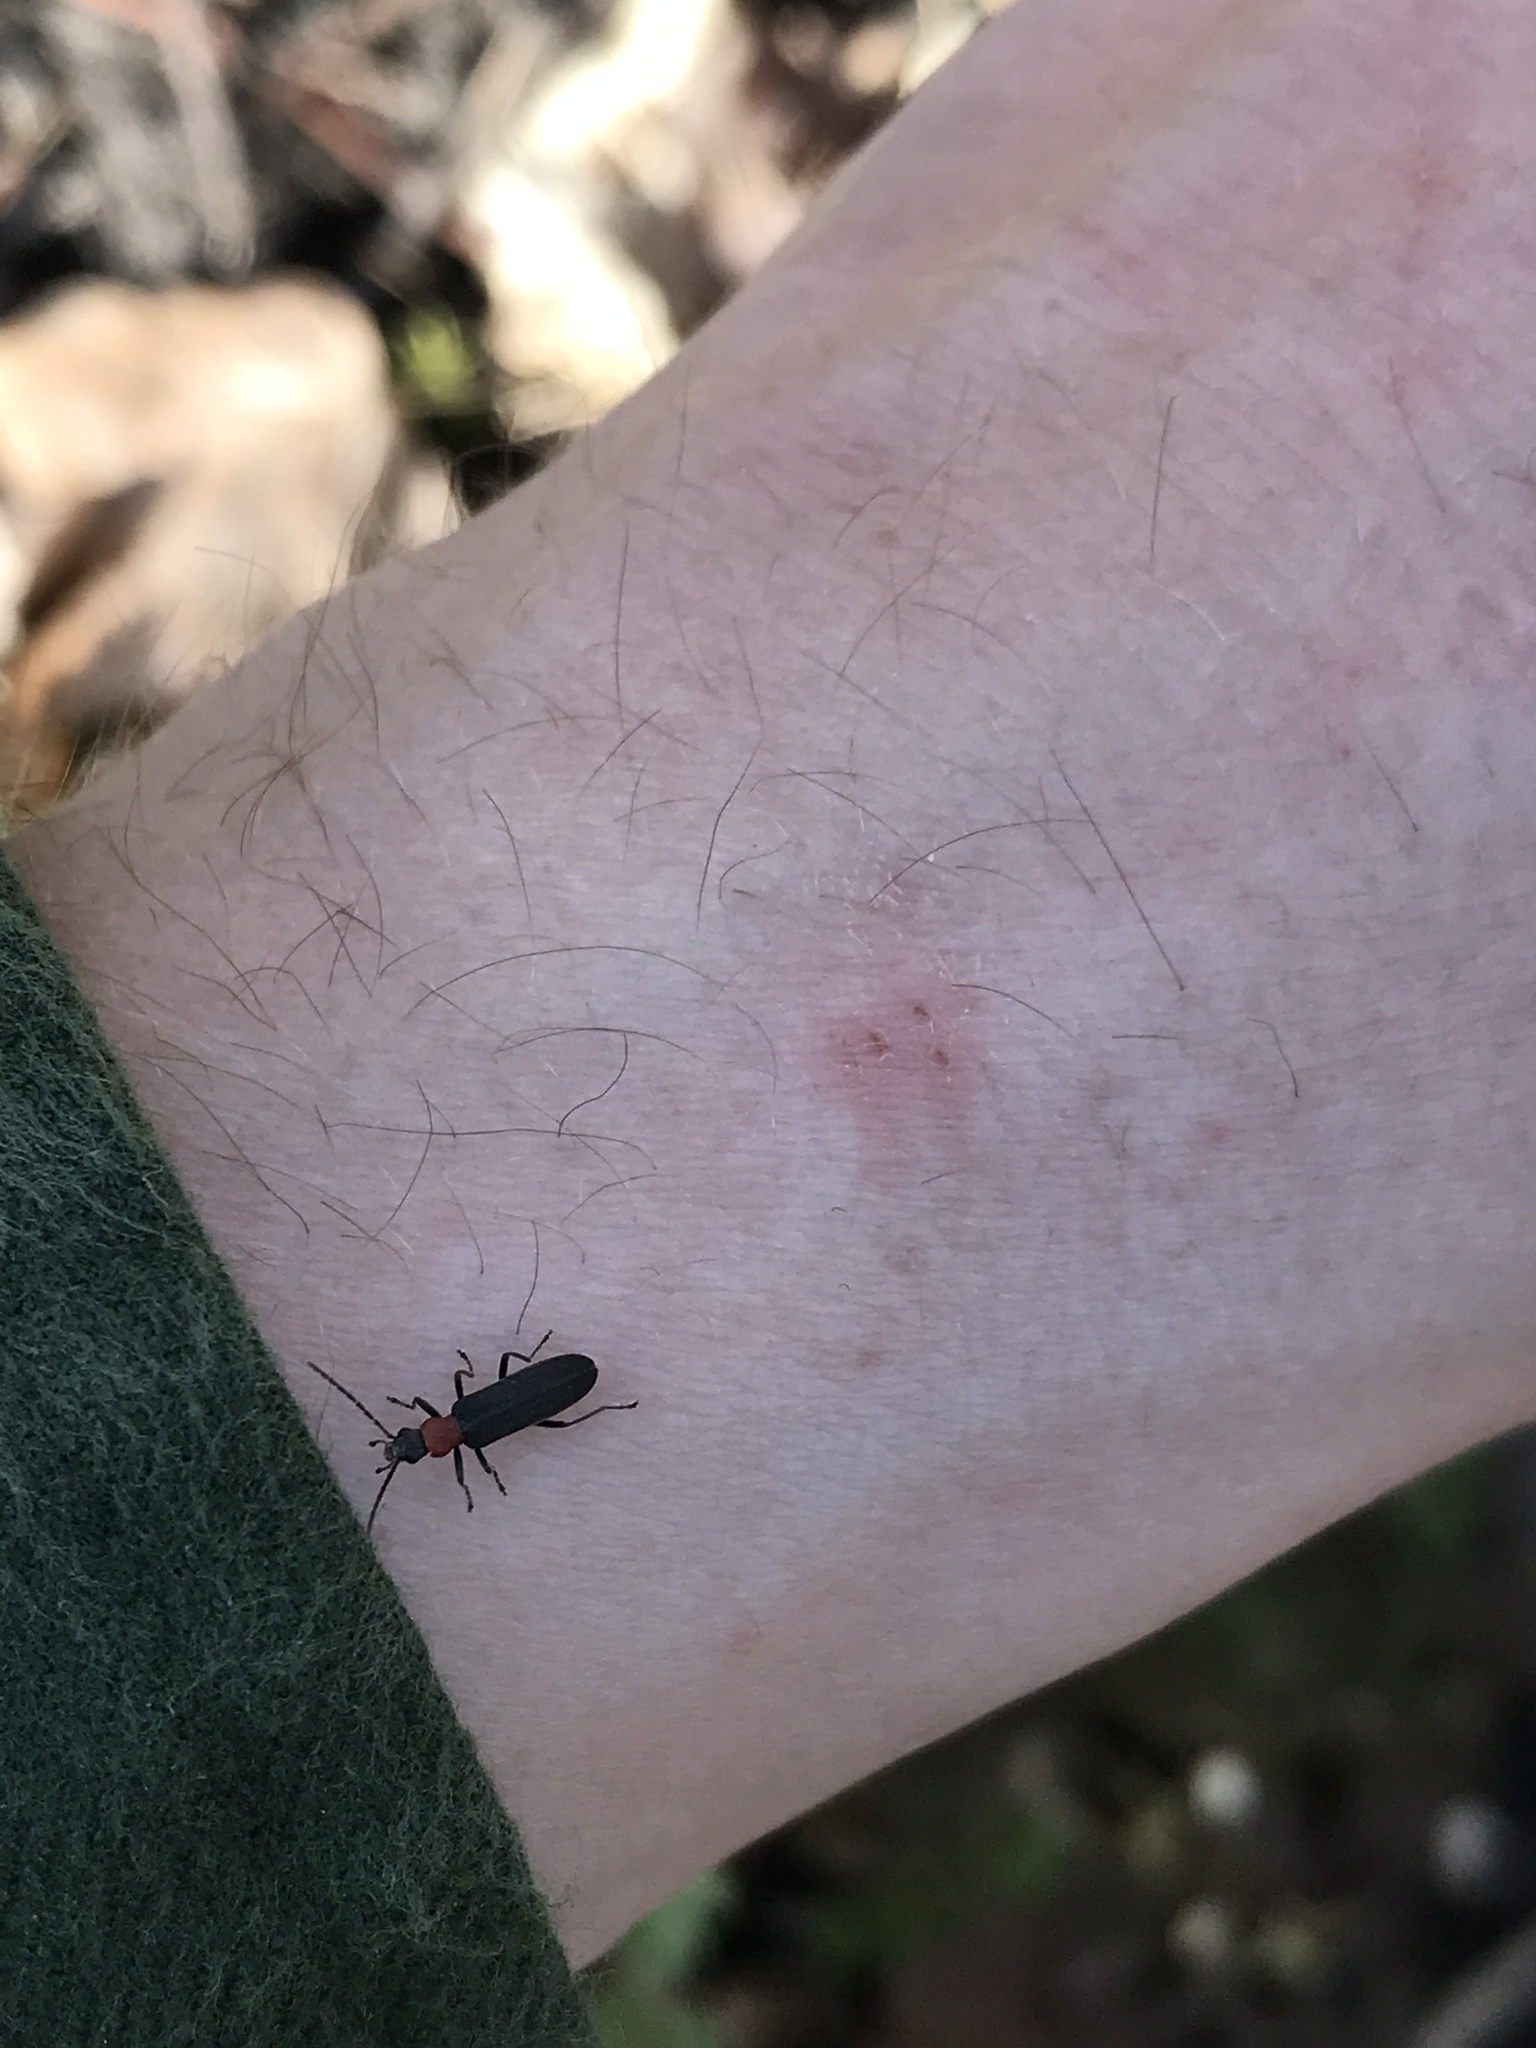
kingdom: Animalia
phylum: Arthropoda
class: Insecta
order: Coleoptera
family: Oedemeridae
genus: Ischnomera
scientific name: Ischnomera
